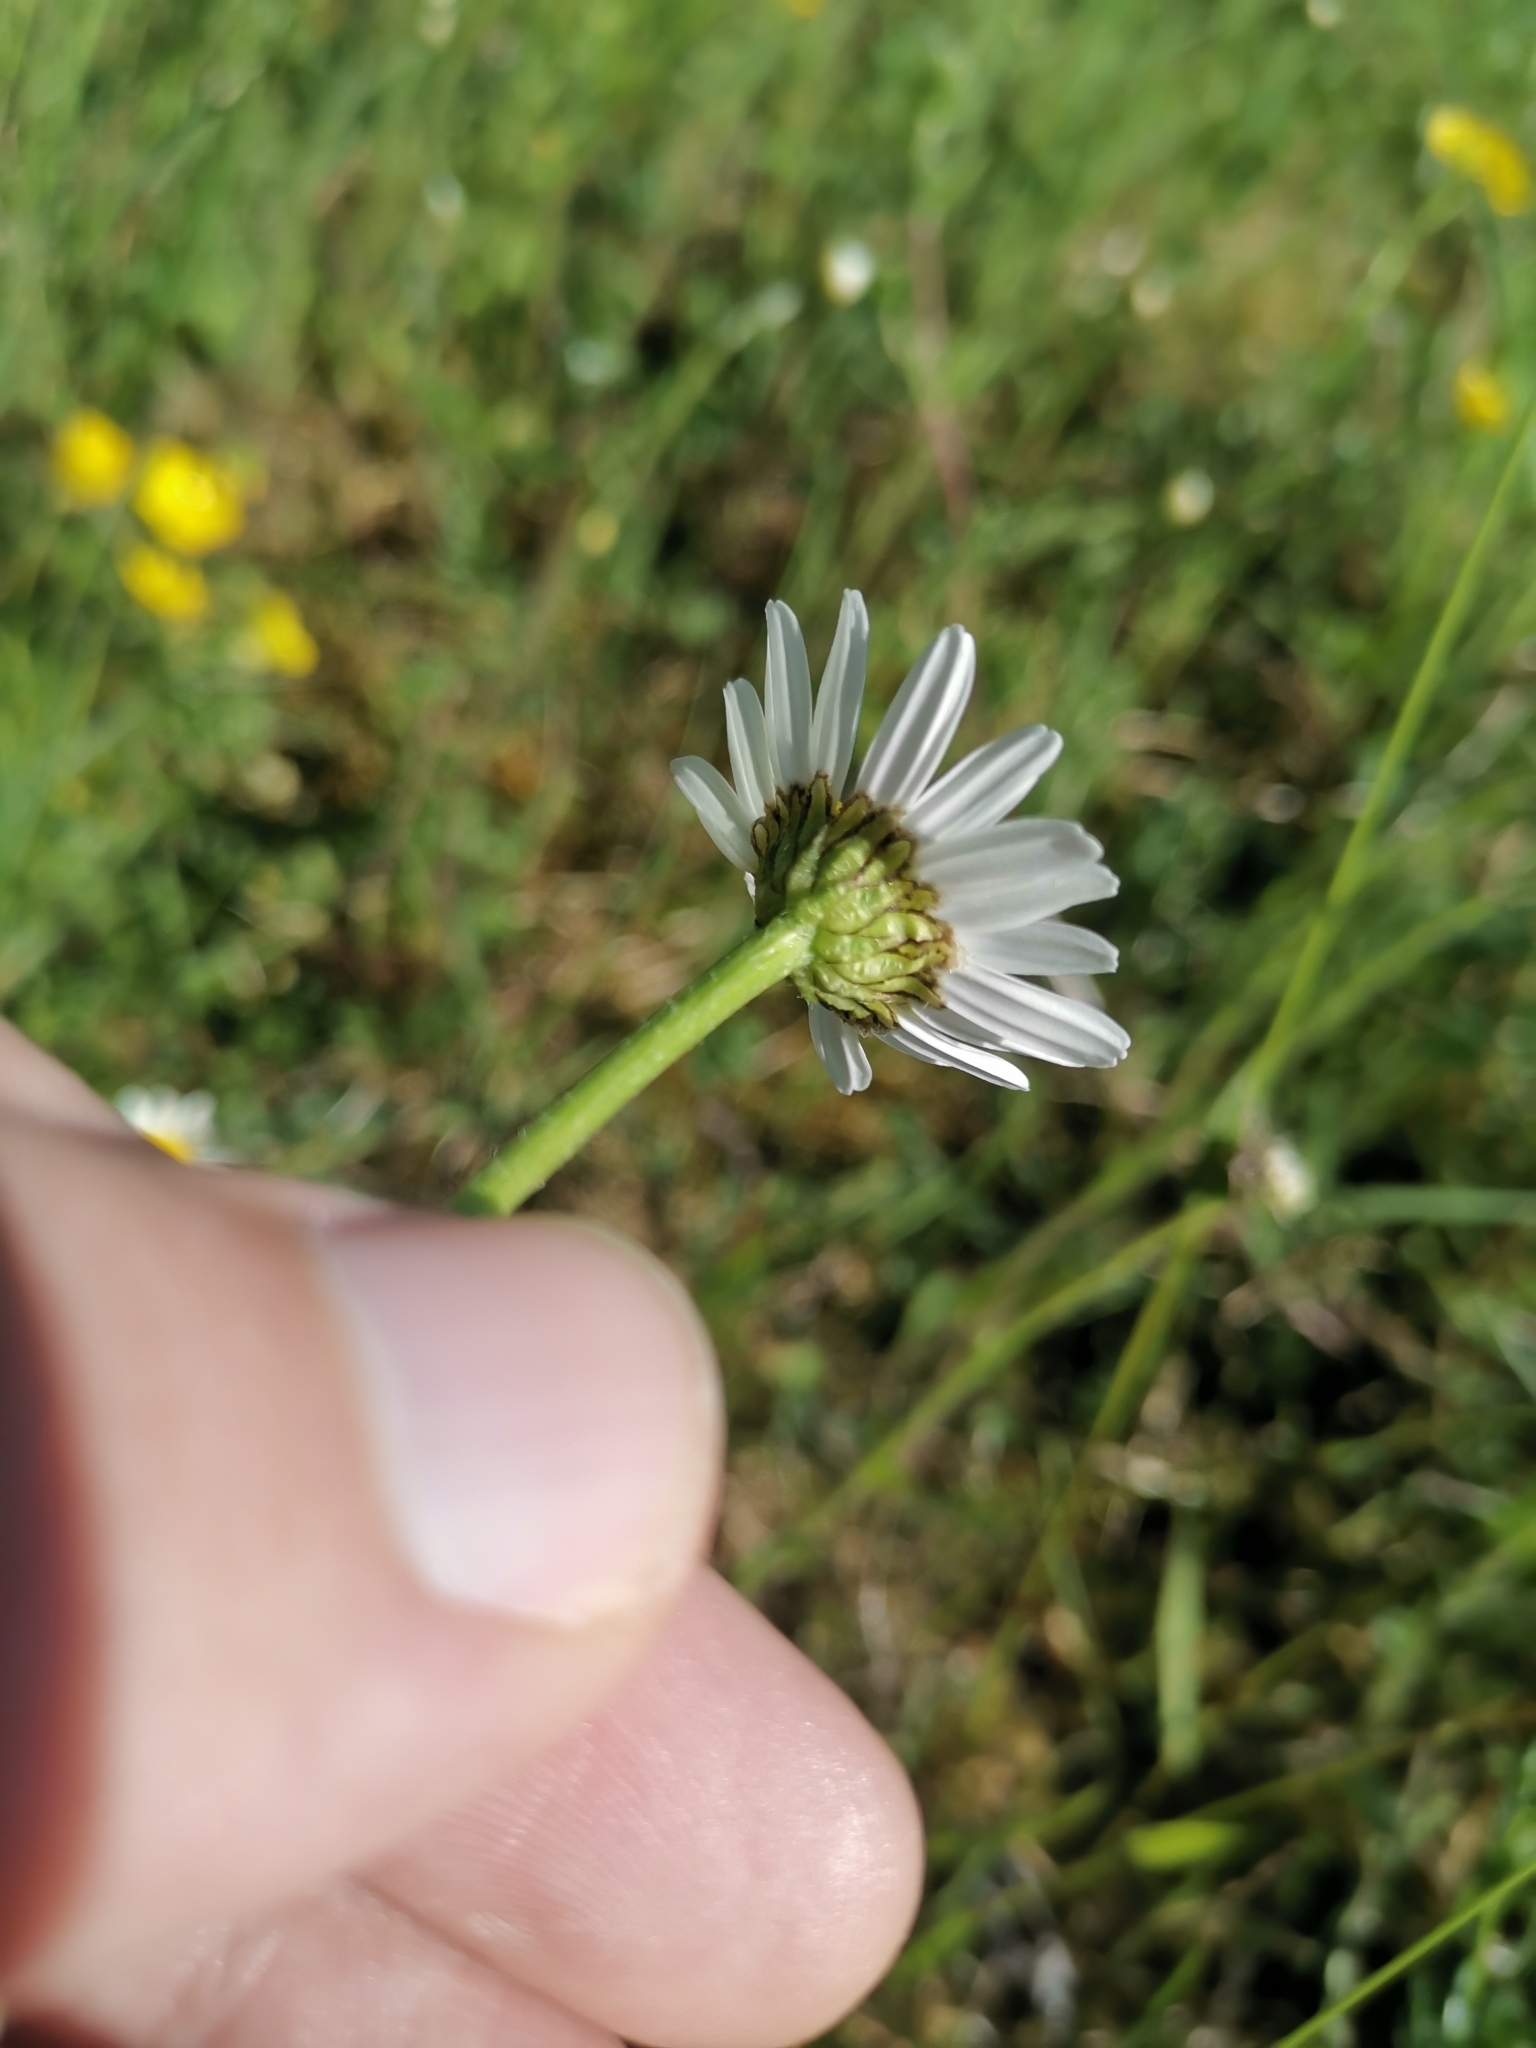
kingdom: Plantae
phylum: Tracheophyta
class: Magnoliopsida
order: Asterales
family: Asteraceae
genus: Leucanthemum
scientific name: Leucanthemum vulgare
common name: Oxeye daisy
